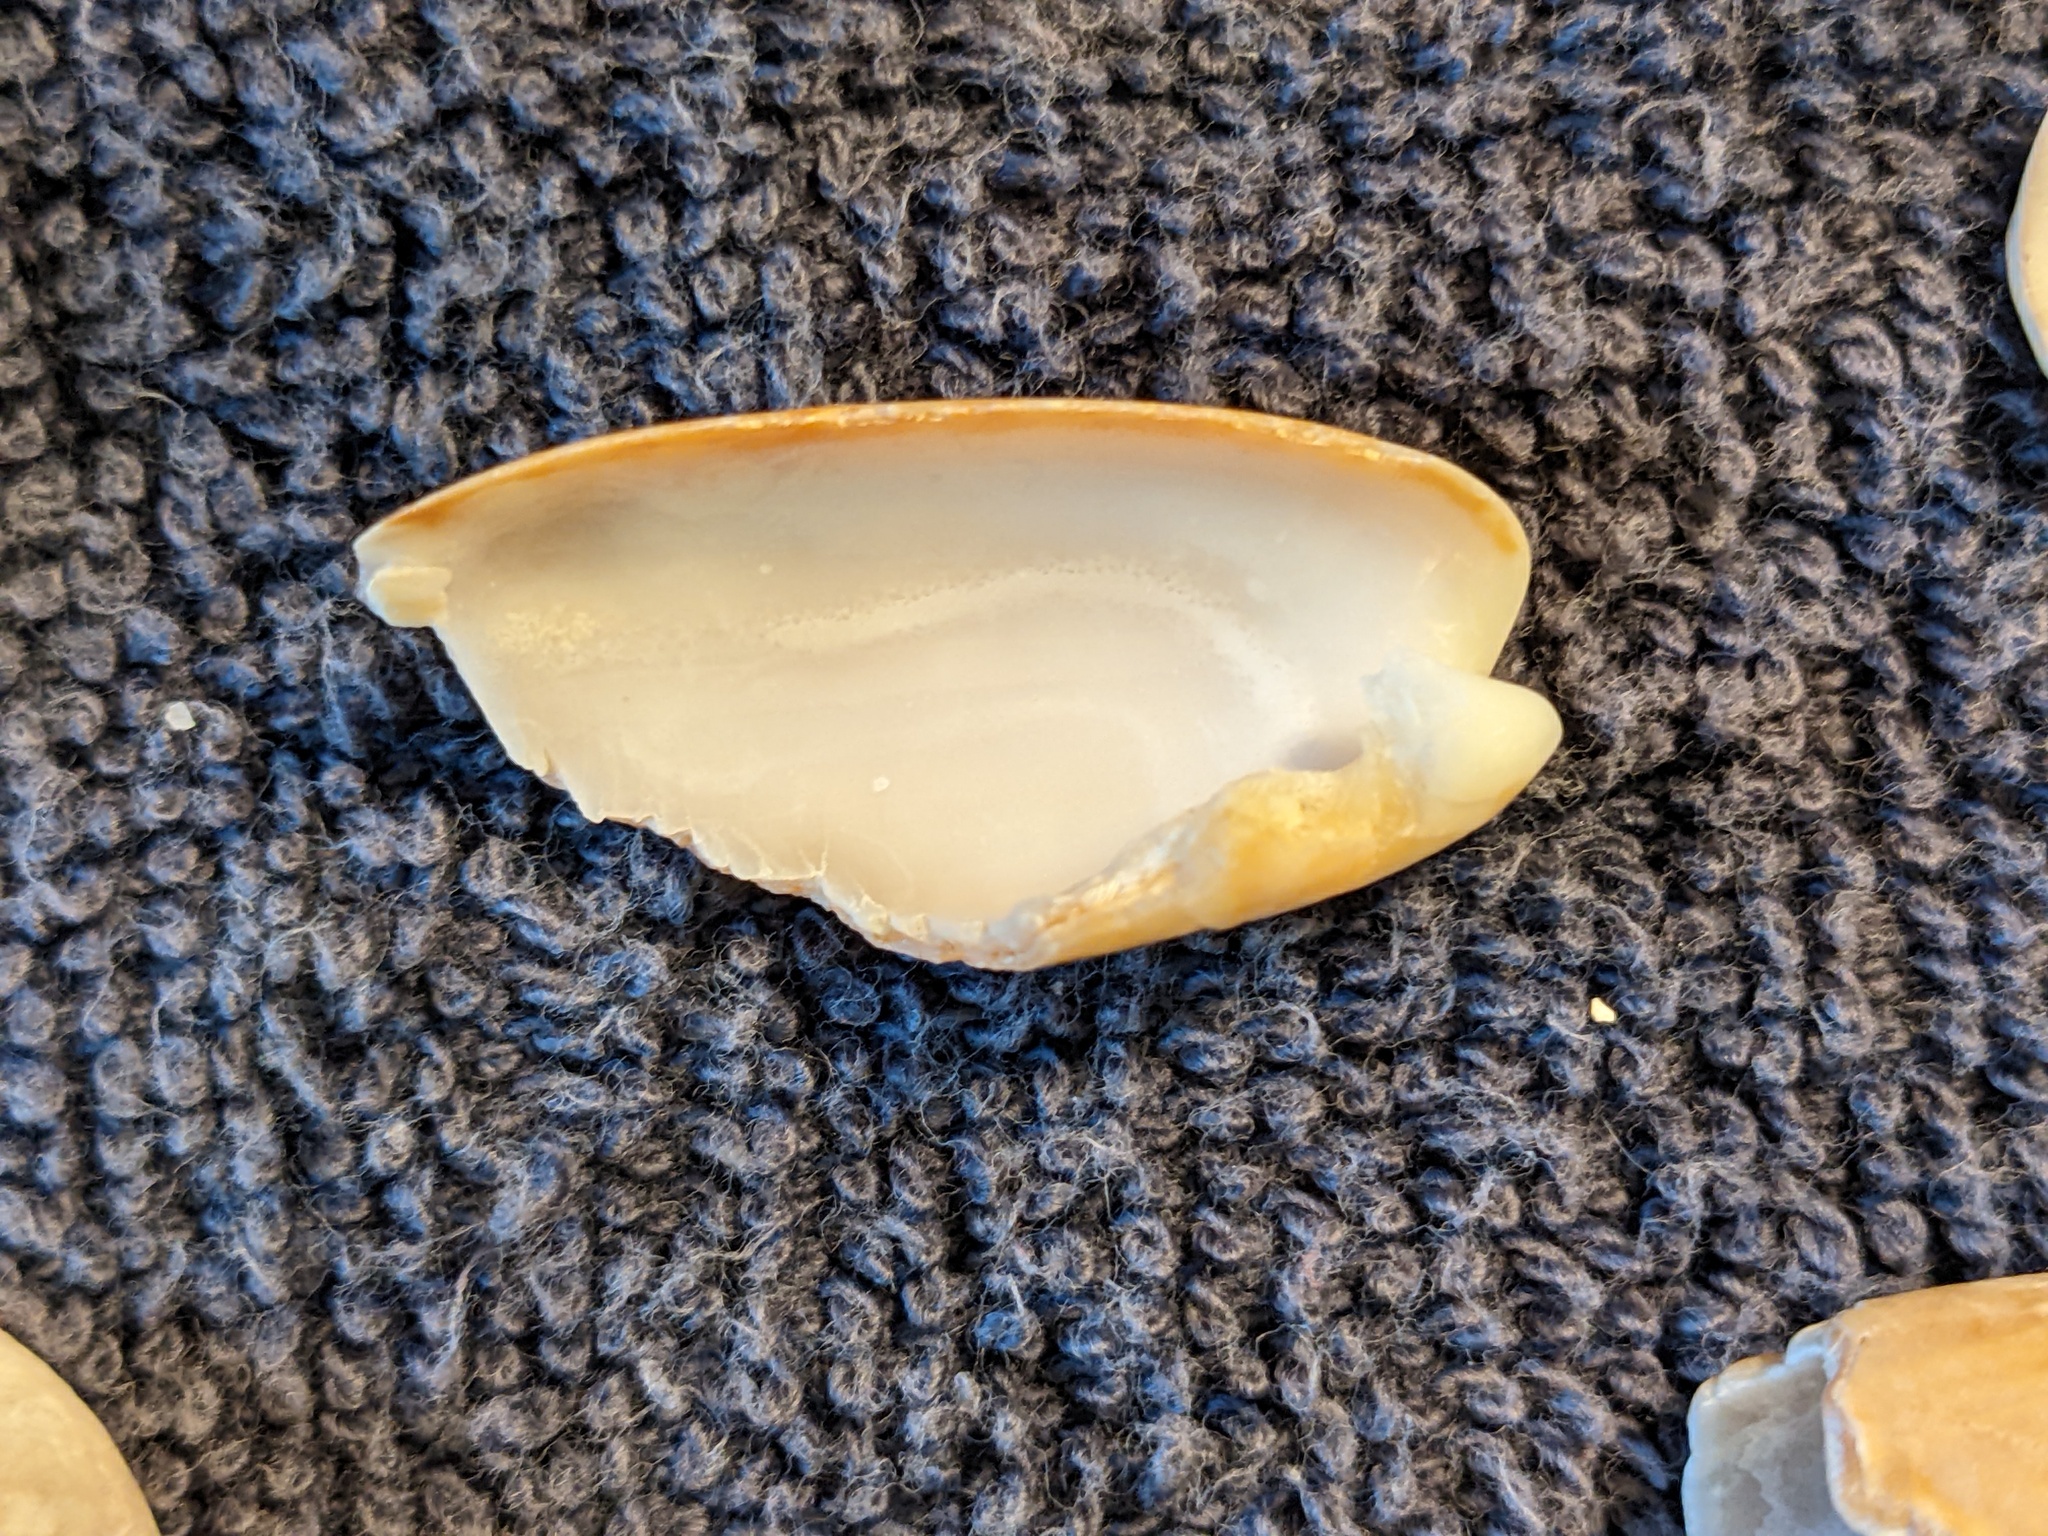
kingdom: Animalia
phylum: Mollusca
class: Gastropoda
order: Neogastropoda
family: Olividae
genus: Oliva
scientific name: Oliva sayana
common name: Lettered olive
